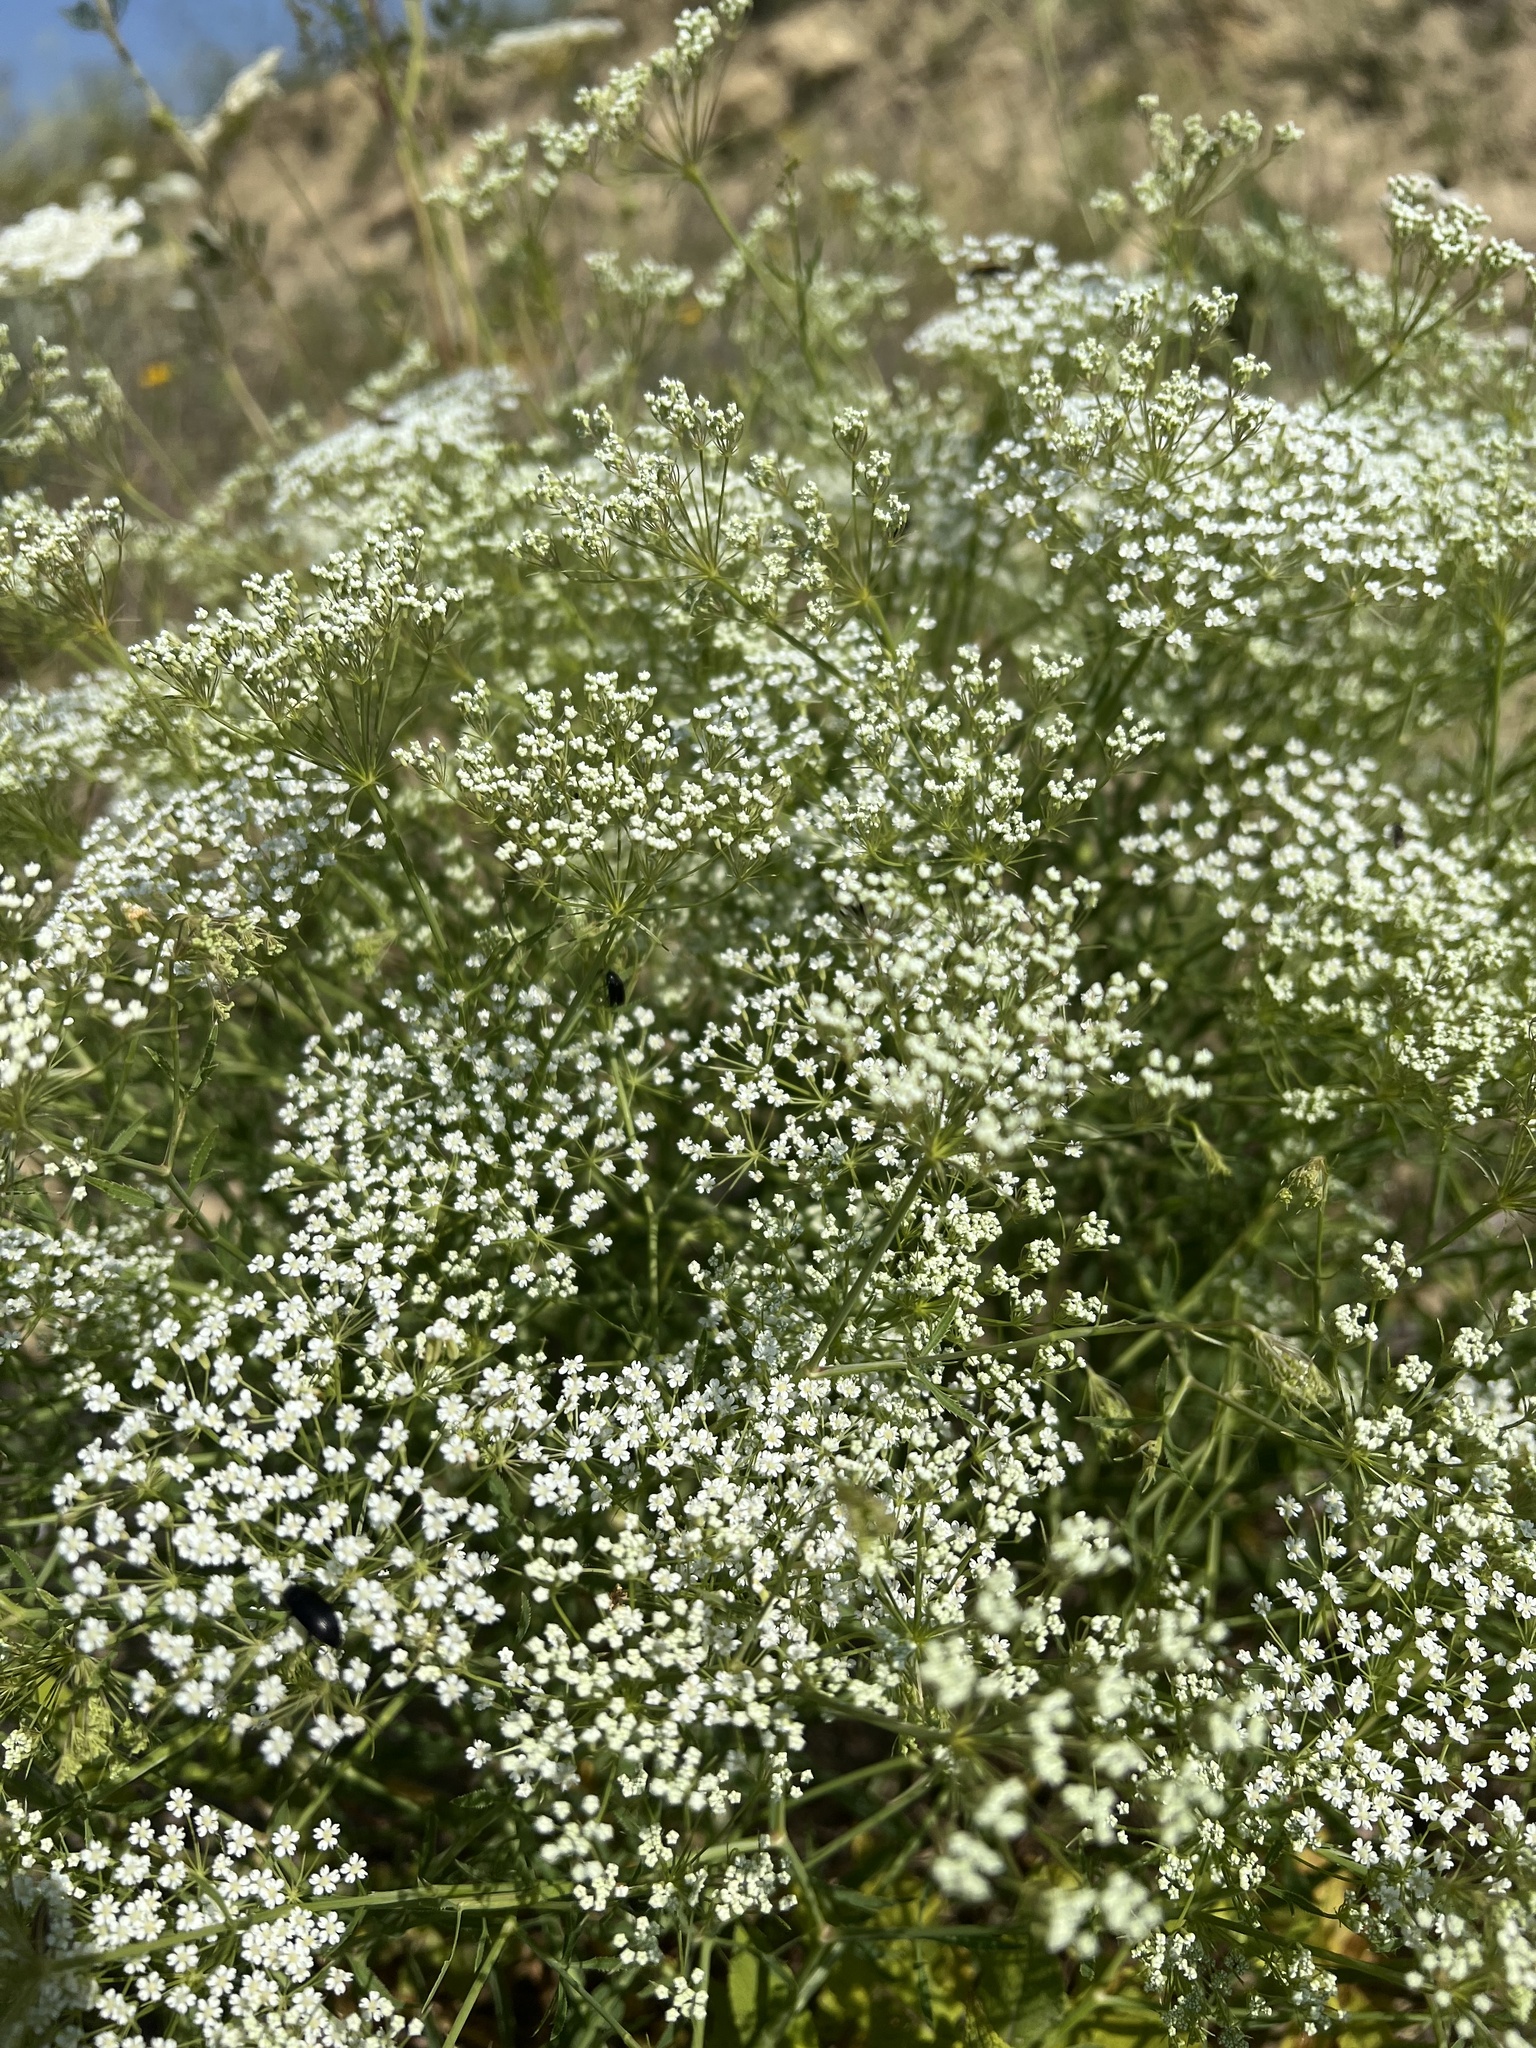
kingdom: Plantae
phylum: Tracheophyta
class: Magnoliopsida
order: Apiales
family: Apiaceae
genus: Falcaria
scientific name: Falcaria vulgaris
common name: Longleaf
